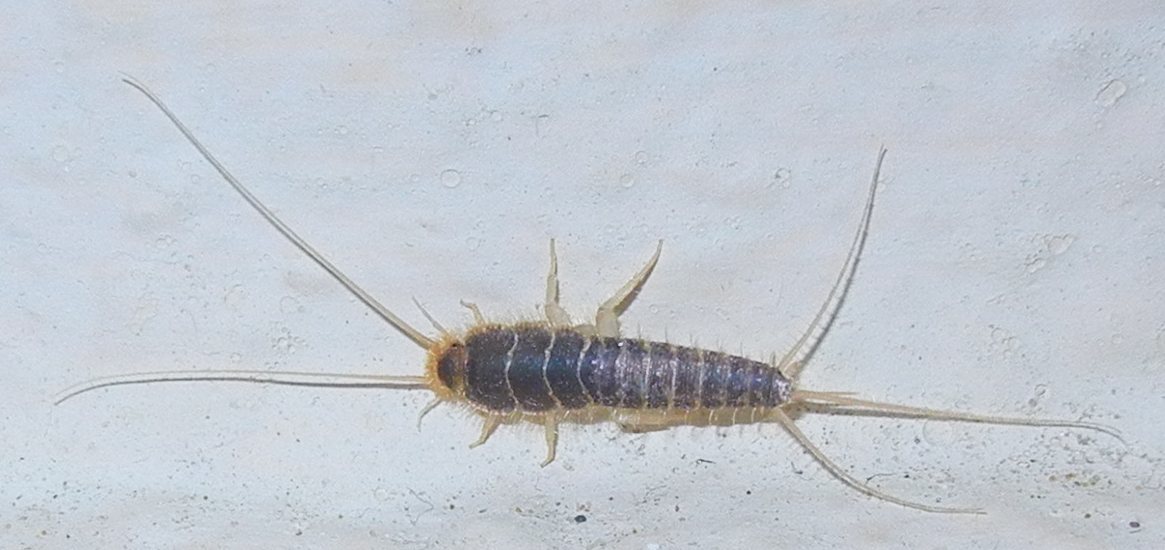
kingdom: Animalia
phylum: Arthropoda
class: Insecta
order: Zygentoma
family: Lepismatidae
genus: Ctenolepisma
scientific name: Ctenolepisma longicaudatum
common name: Silverfish
